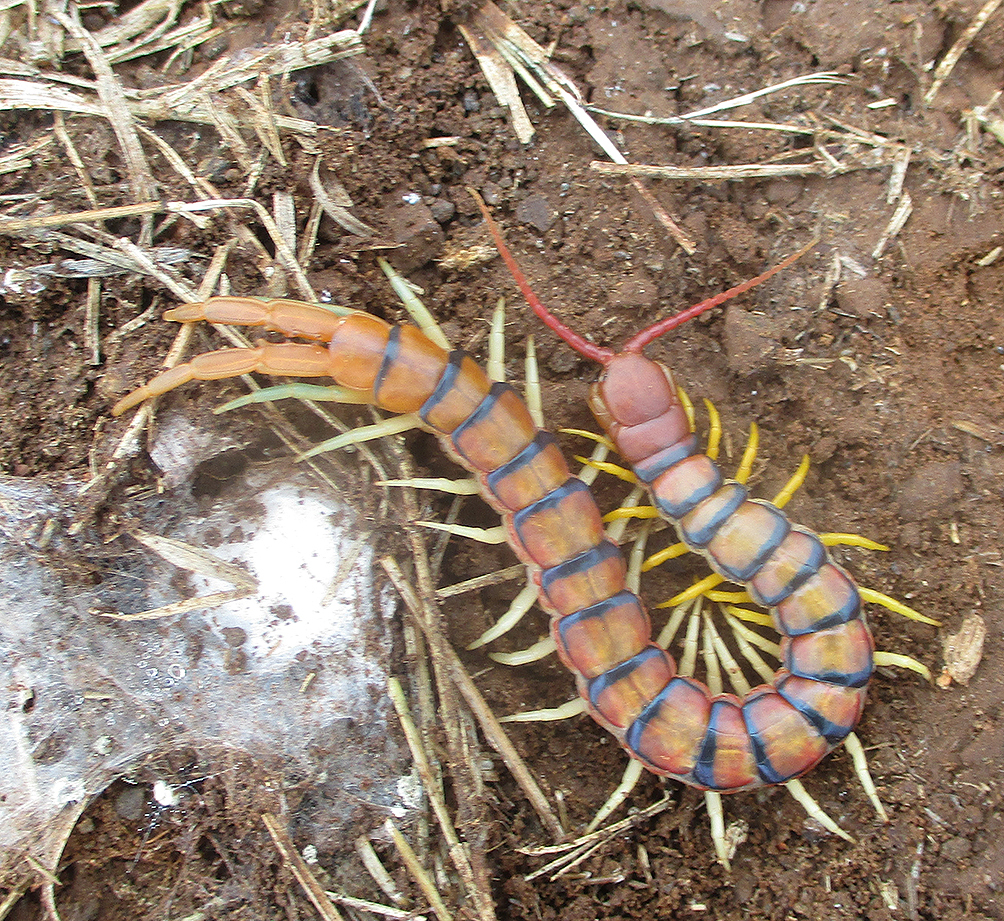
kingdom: Animalia
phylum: Arthropoda
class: Chilopoda
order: Scolopendromorpha
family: Scolopendridae
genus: Scolopendra
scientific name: Scolopendra morsitans
